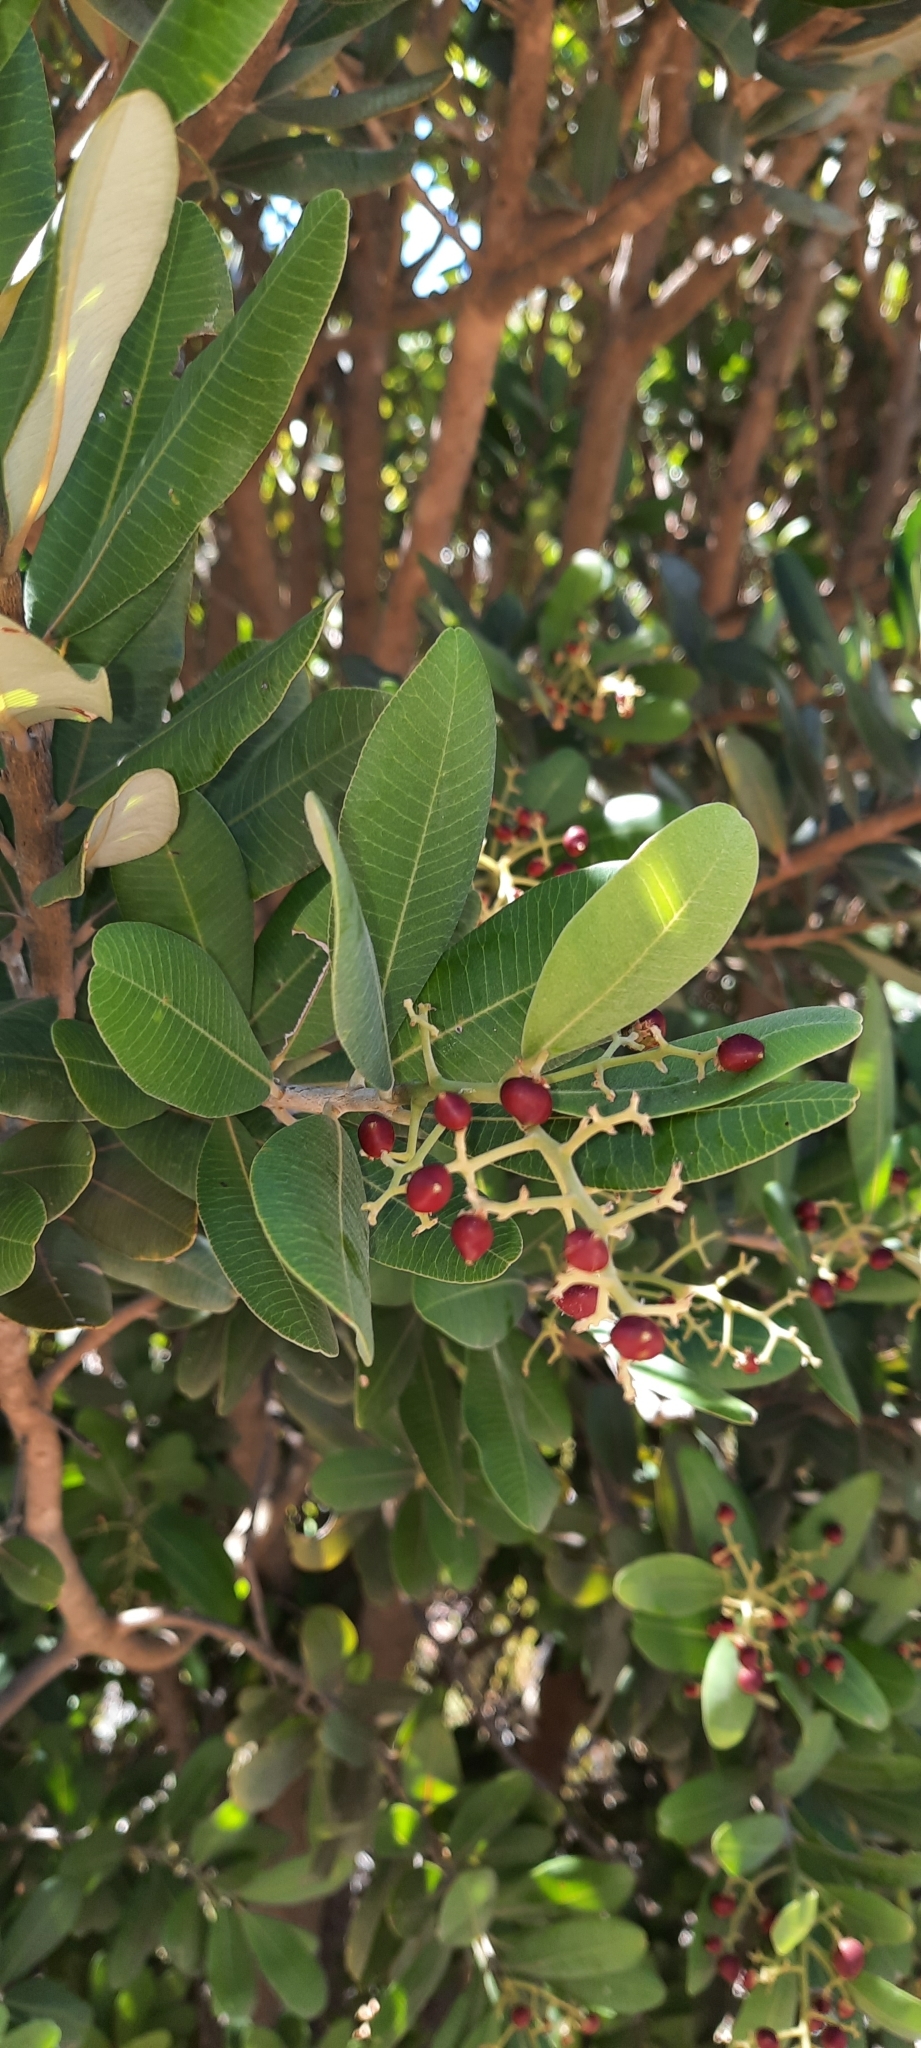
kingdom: Plantae
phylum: Tracheophyta
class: Magnoliopsida
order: Sapindales
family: Anacardiaceae
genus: Heeria
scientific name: Heeria argentea
